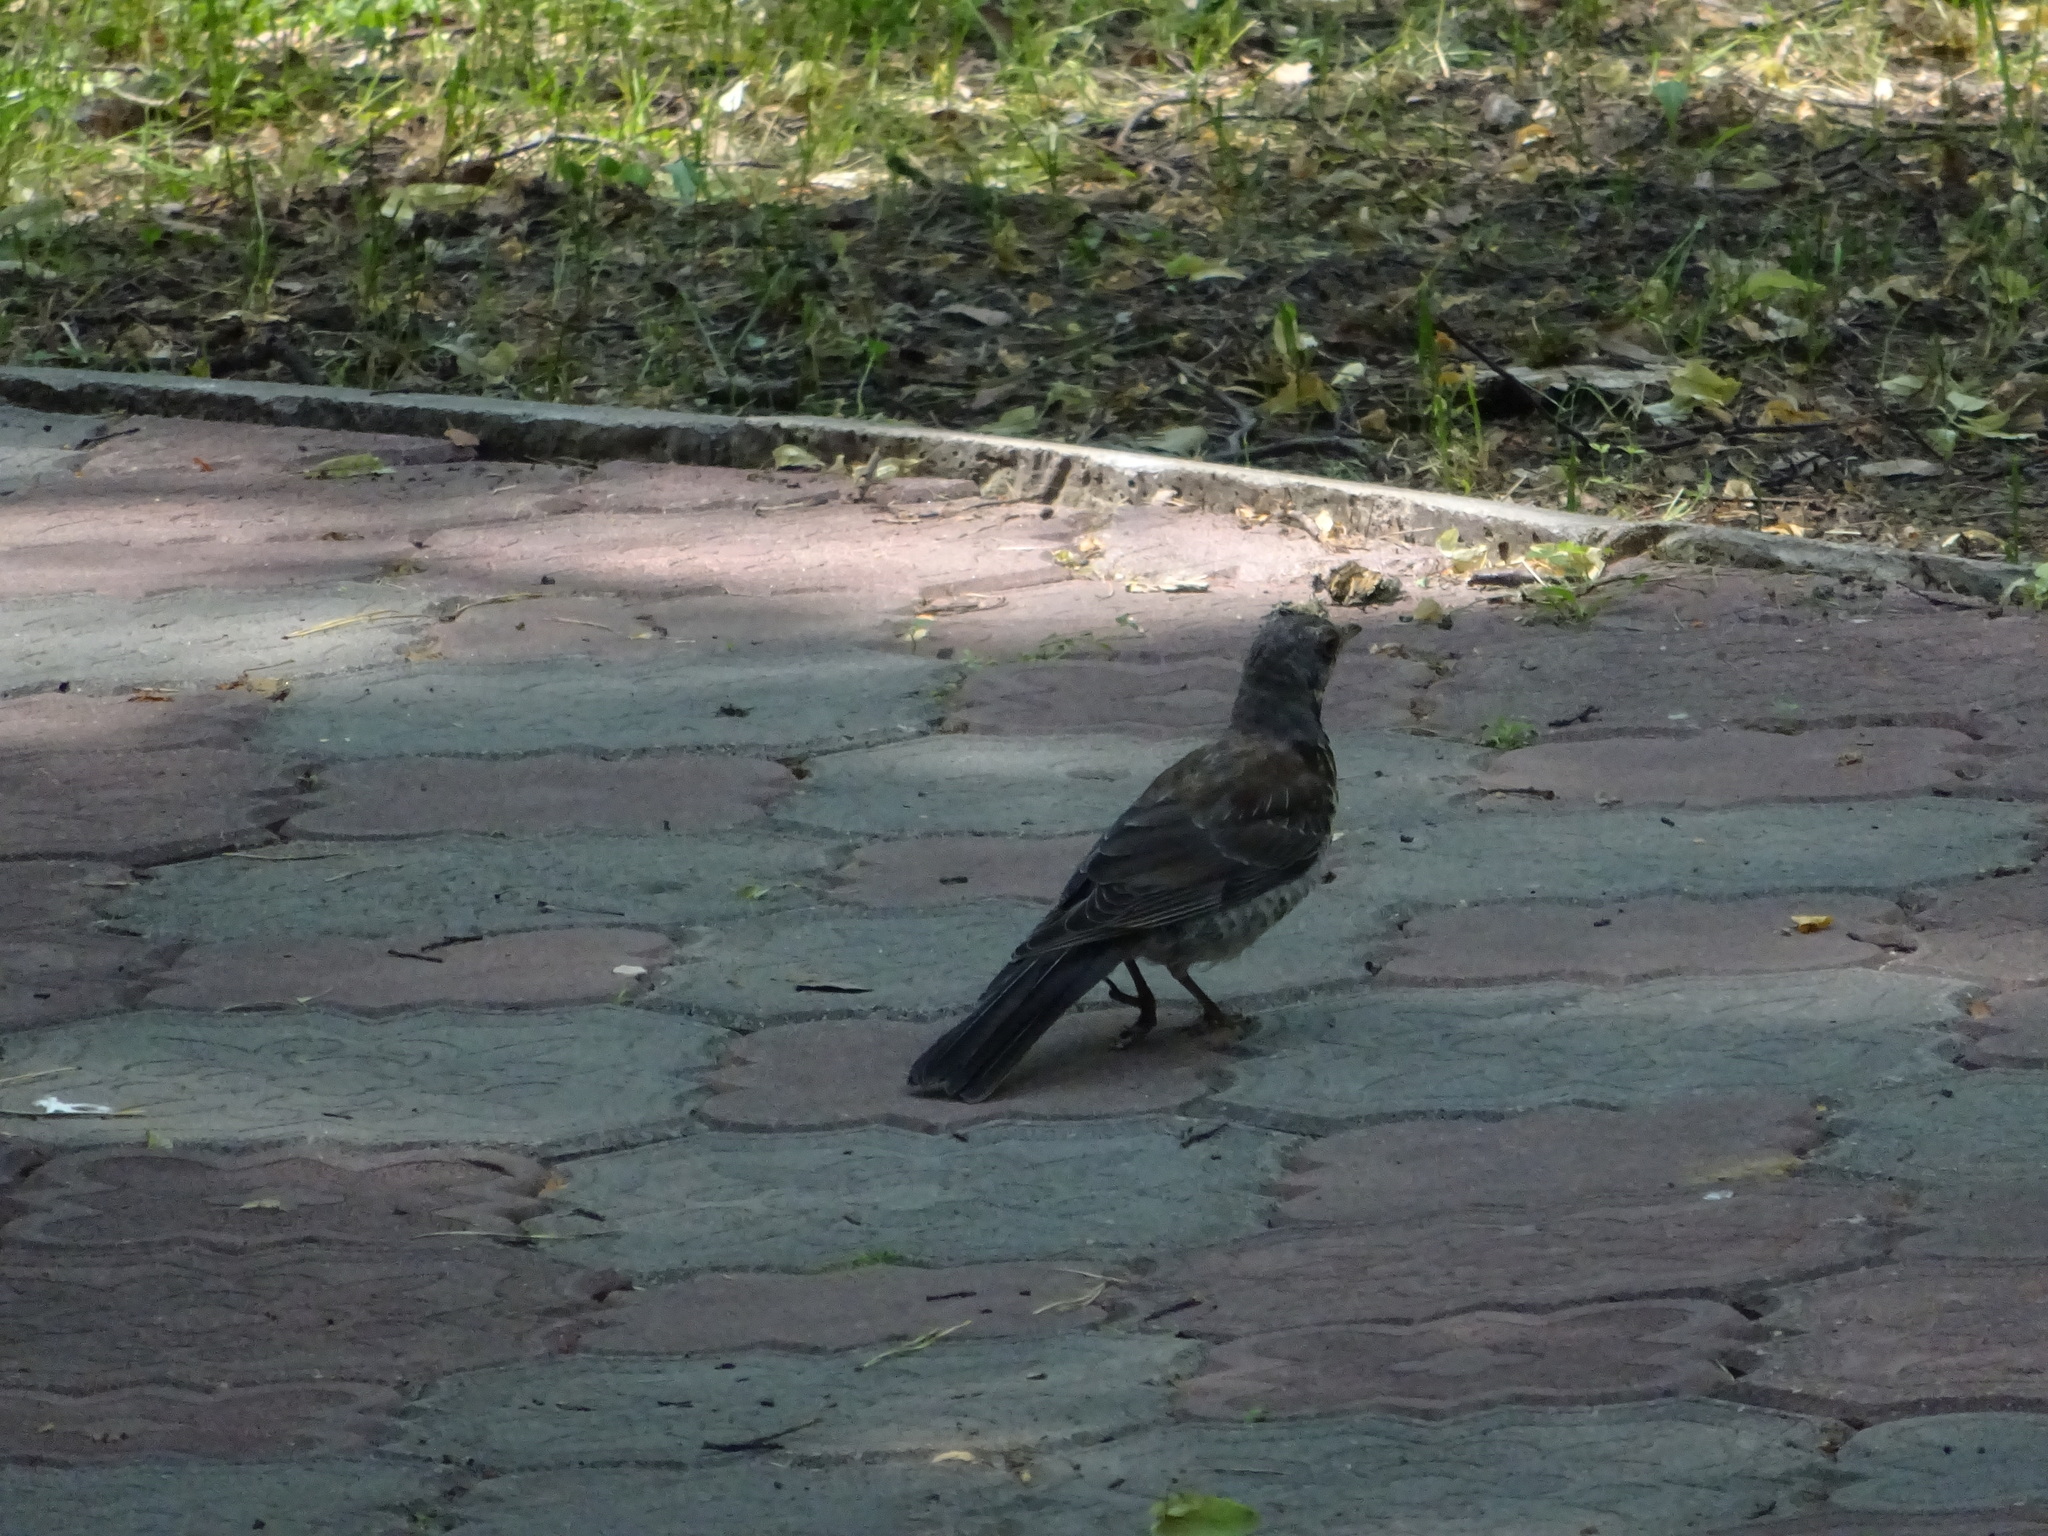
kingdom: Animalia
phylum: Chordata
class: Aves
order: Passeriformes
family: Turdidae
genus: Turdus
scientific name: Turdus pilaris
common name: Fieldfare
